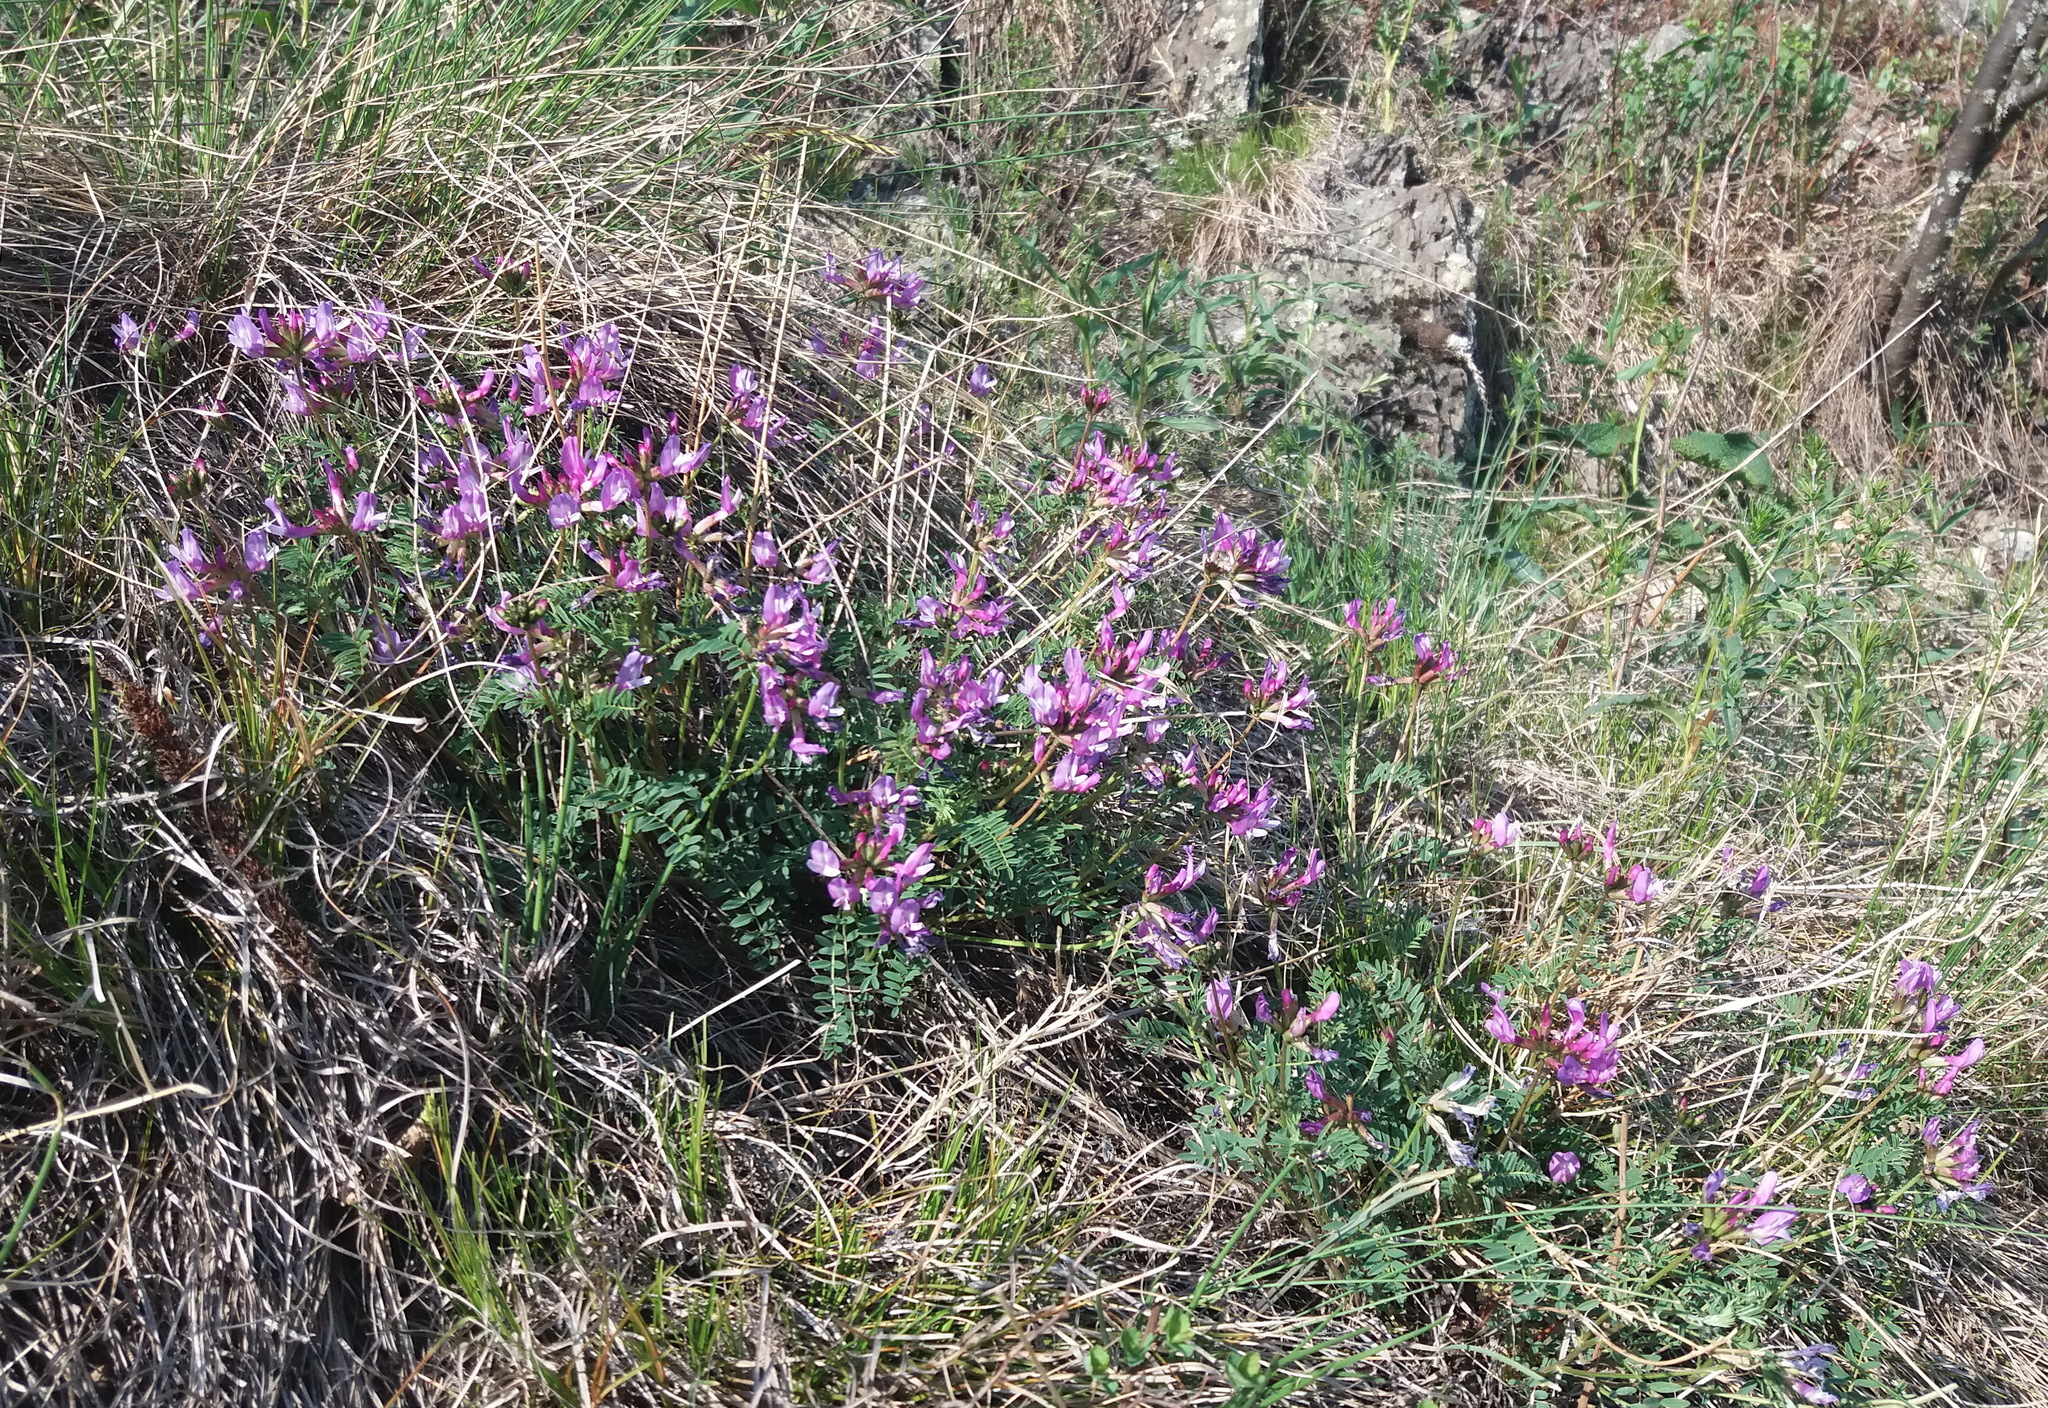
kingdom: Plantae
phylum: Tracheophyta
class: Magnoliopsida
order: Fabales
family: Fabaceae
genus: Astragalus
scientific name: Astragalus ceratoides
